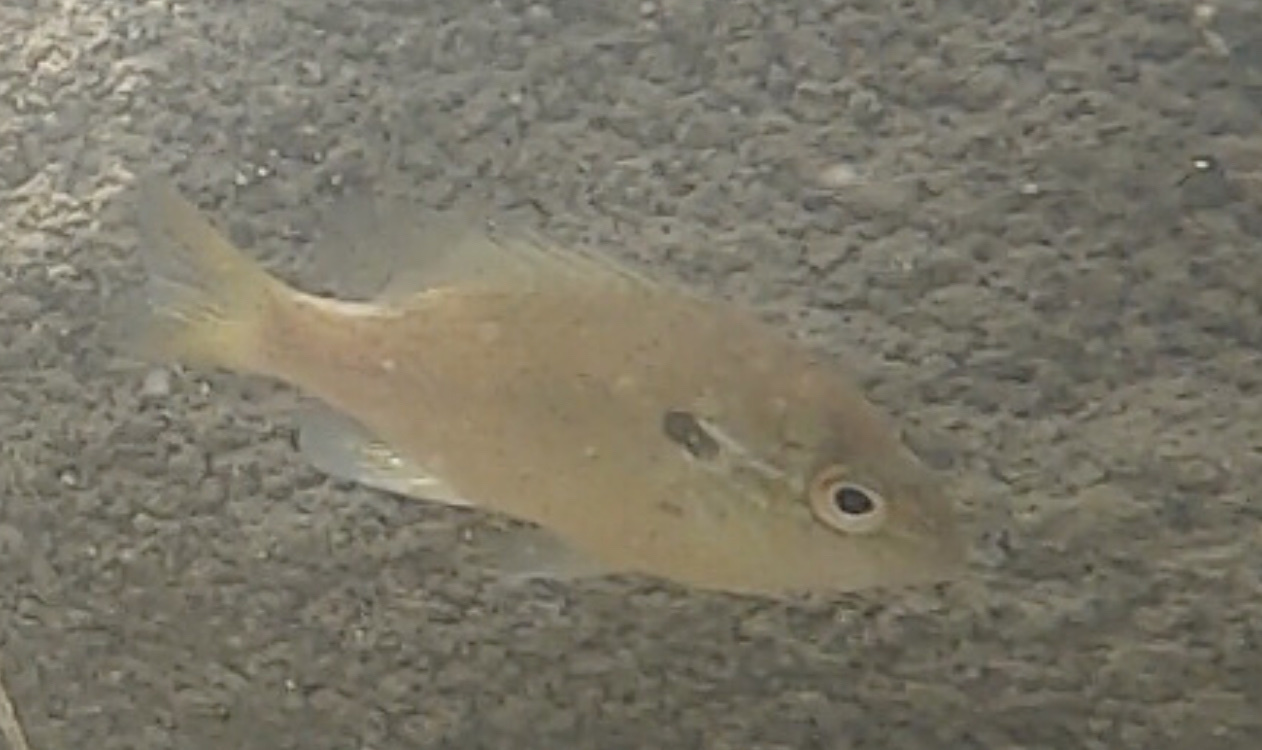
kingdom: Animalia
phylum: Chordata
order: Perciformes
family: Centrarchidae
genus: Lepomis
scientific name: Lepomis auritus
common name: Redbreast sunfish
